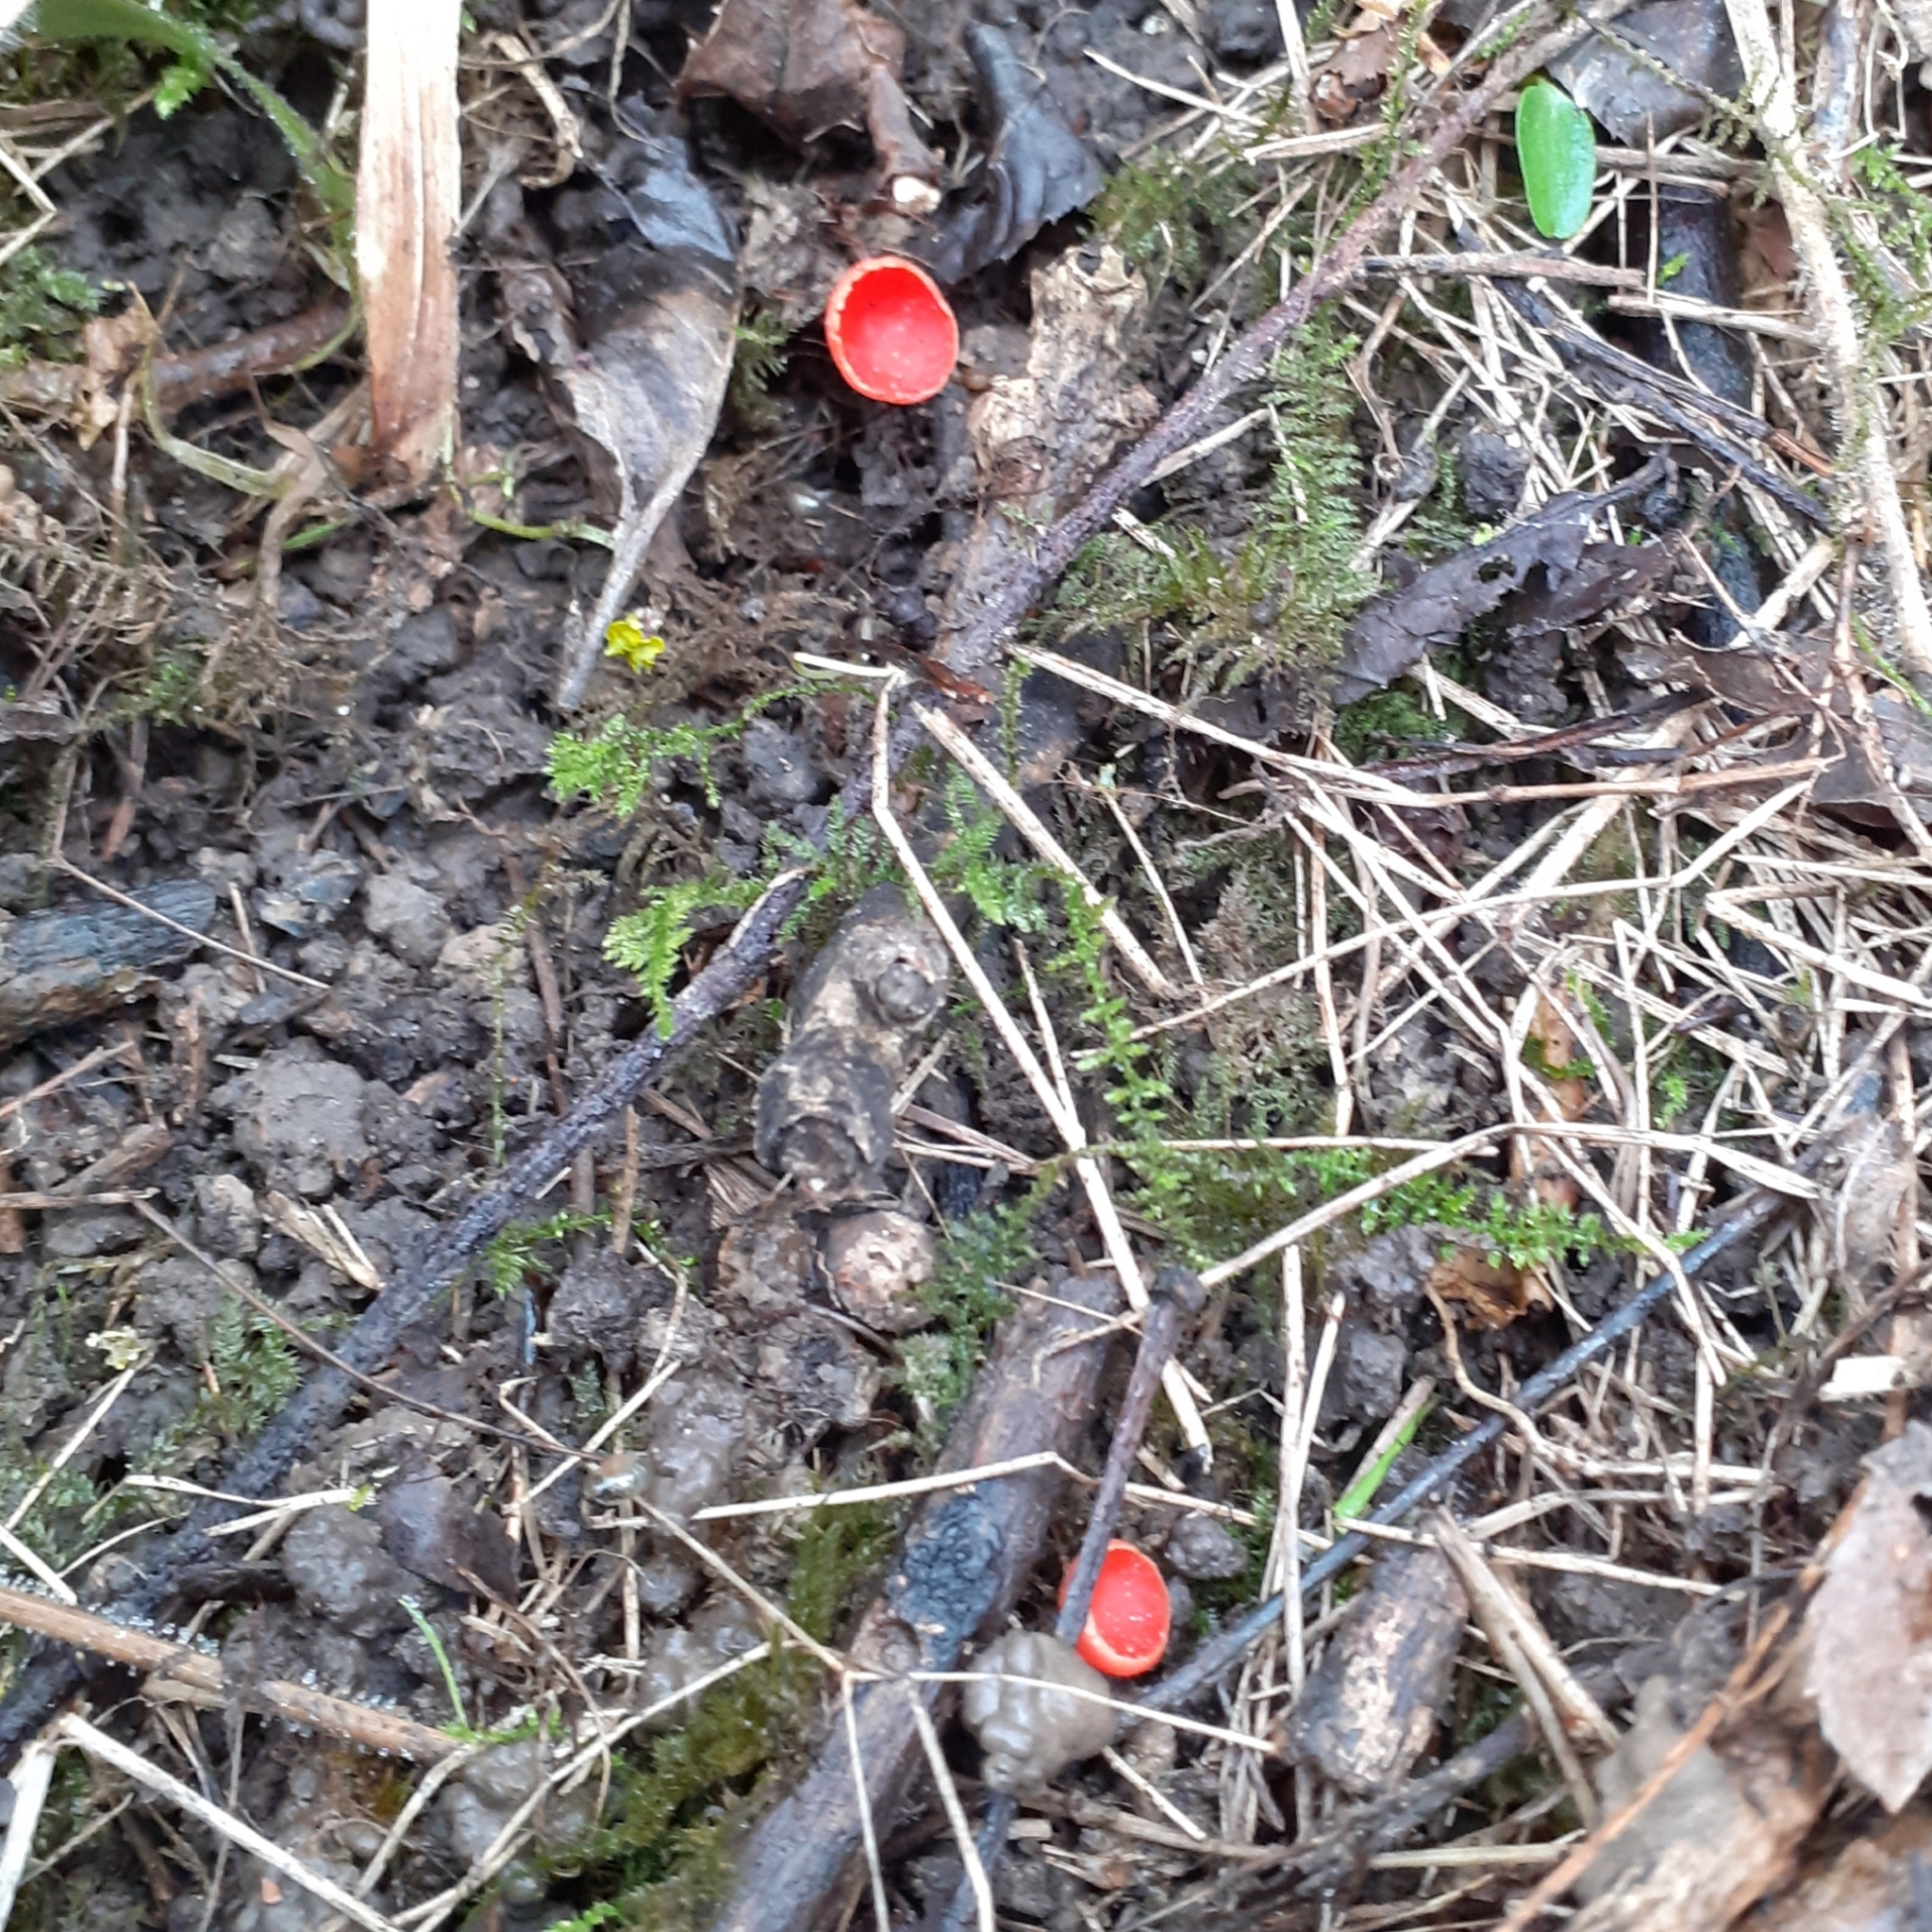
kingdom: Fungi
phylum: Ascomycota
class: Pezizomycetes
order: Pezizales
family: Sarcoscyphaceae
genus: Sarcoscypha
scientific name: Sarcoscypha
